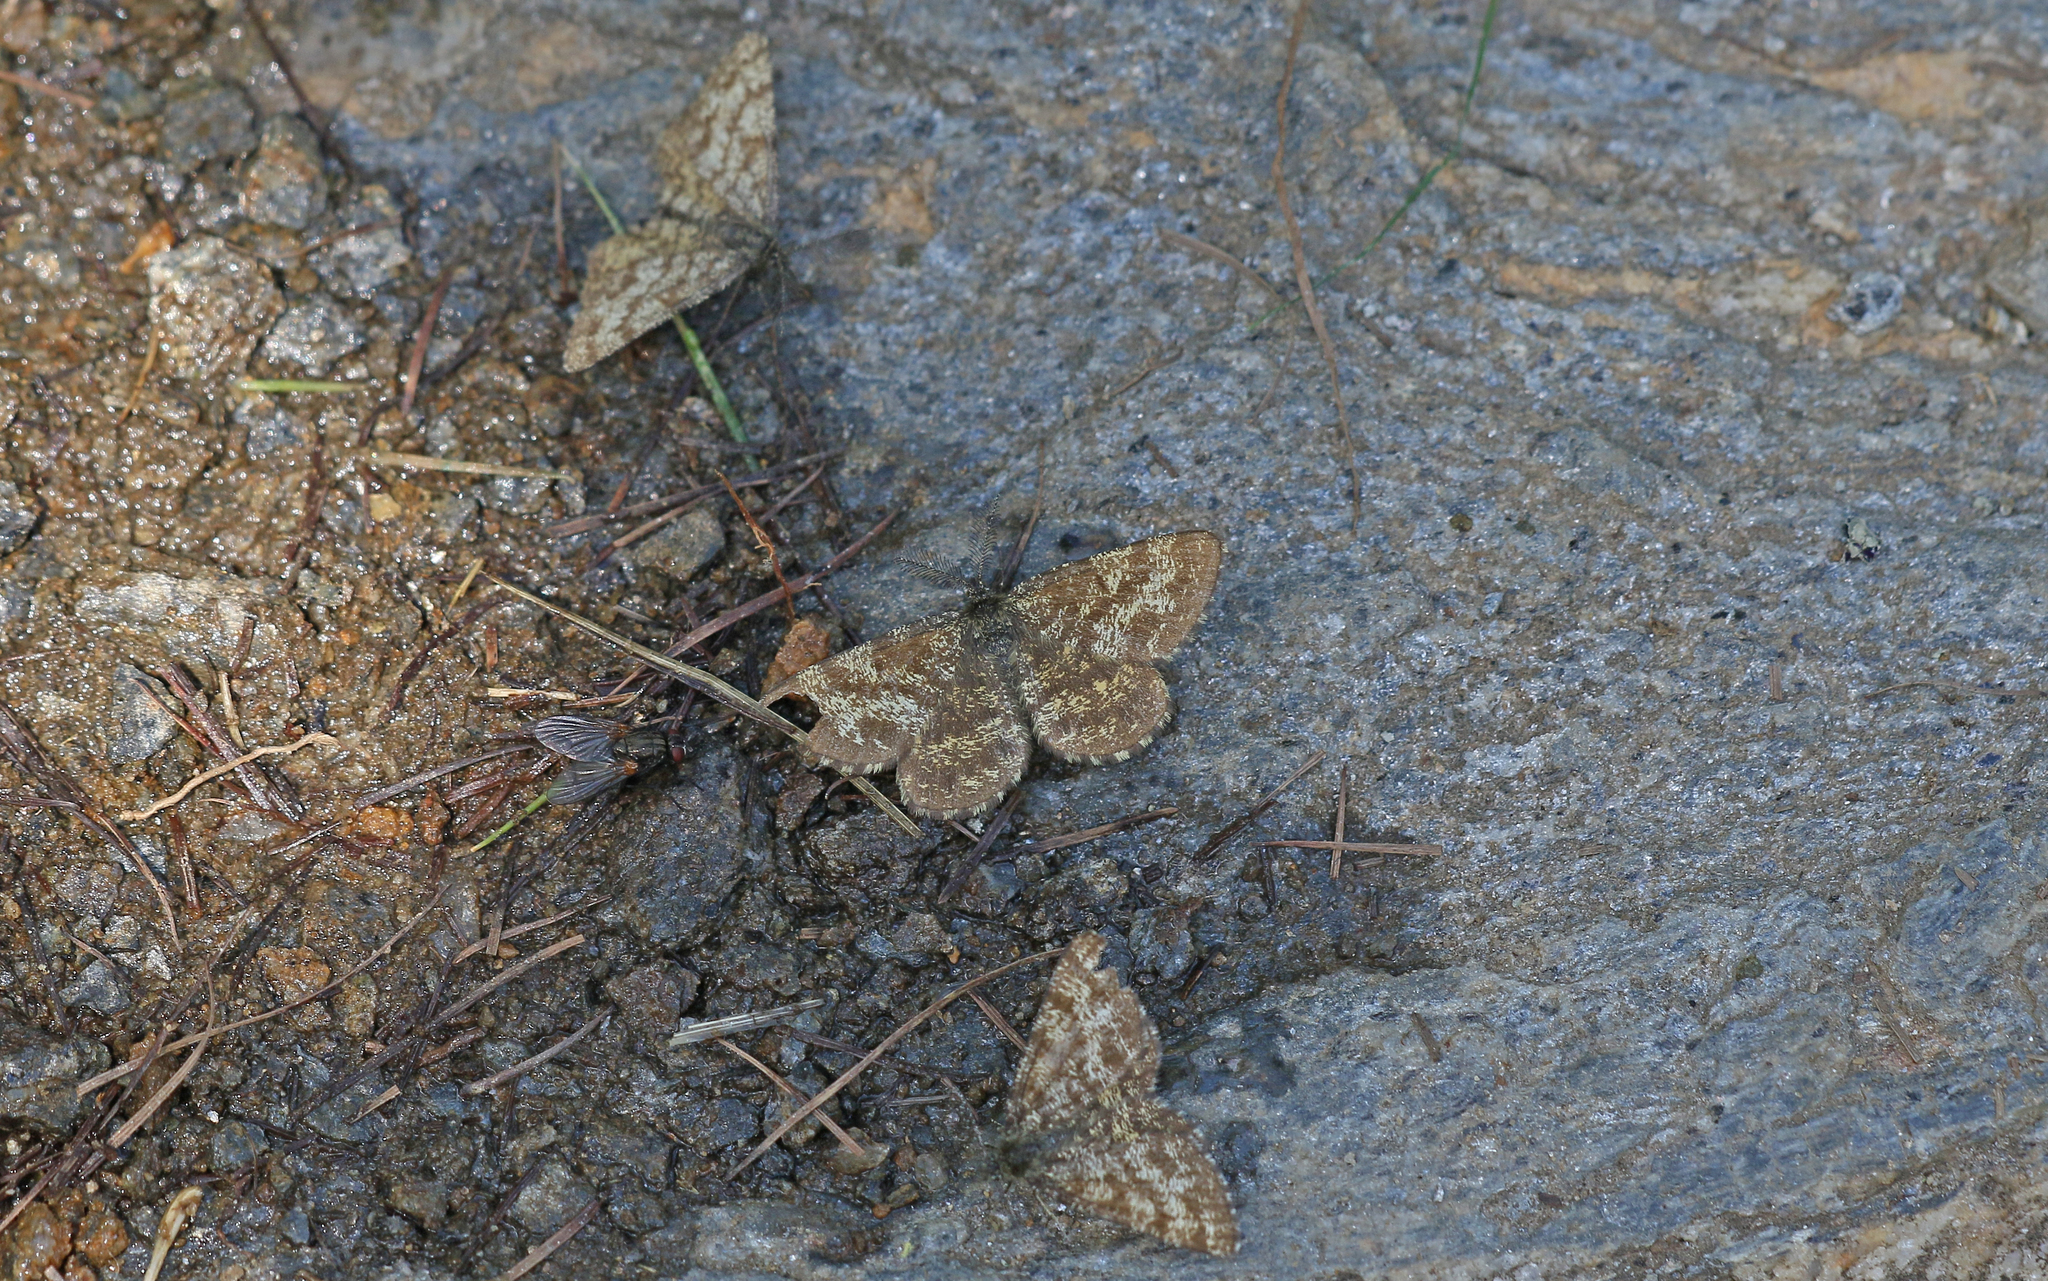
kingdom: Animalia
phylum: Arthropoda
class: Insecta
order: Lepidoptera
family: Geometridae
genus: Ematurga
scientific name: Ematurga atomaria
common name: Common heath
